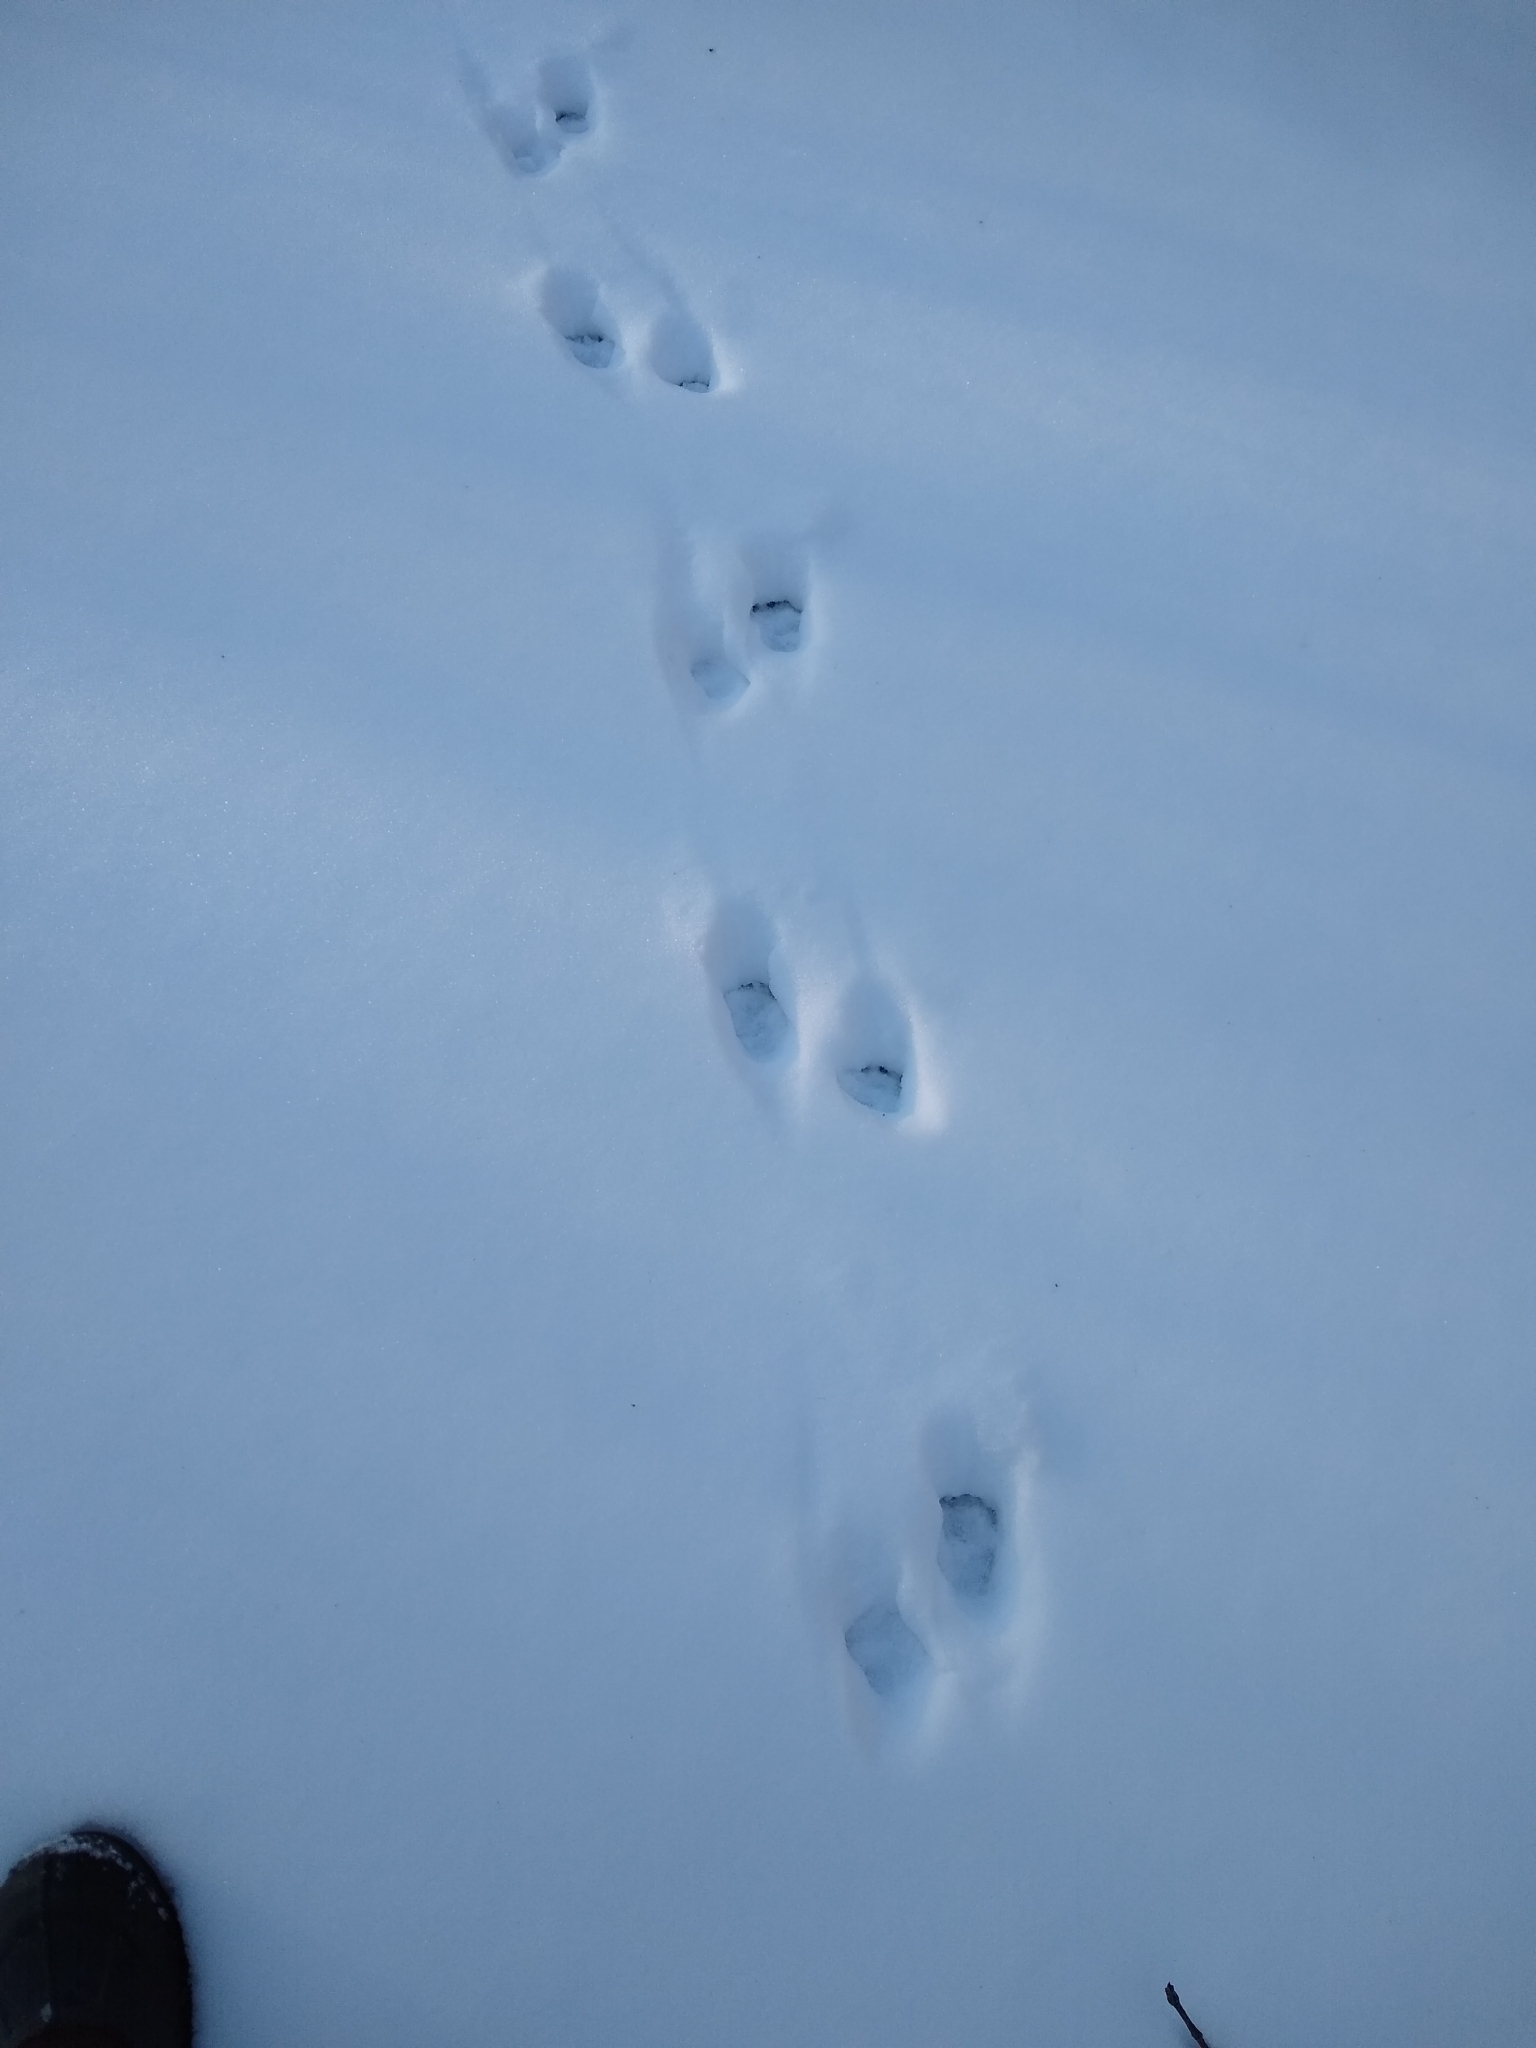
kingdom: Animalia
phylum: Chordata
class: Mammalia
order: Carnivora
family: Procyonidae
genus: Procyon
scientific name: Procyon lotor
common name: Raccoon
